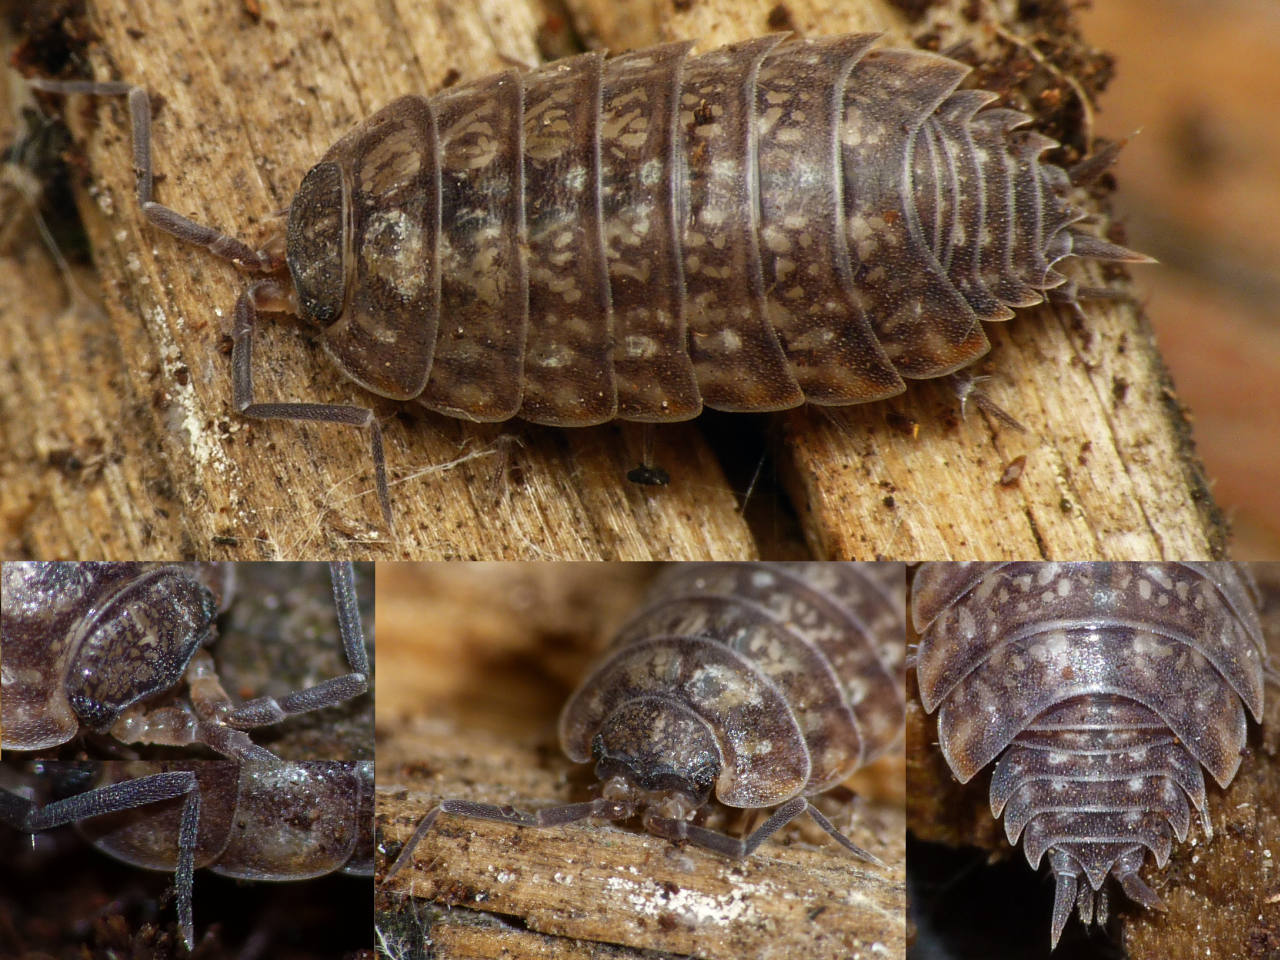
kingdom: Animalia
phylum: Arthropoda
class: Malacostraca
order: Isopoda
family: Philosciidae
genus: Tiroloscia
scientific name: Tiroloscia exigua
